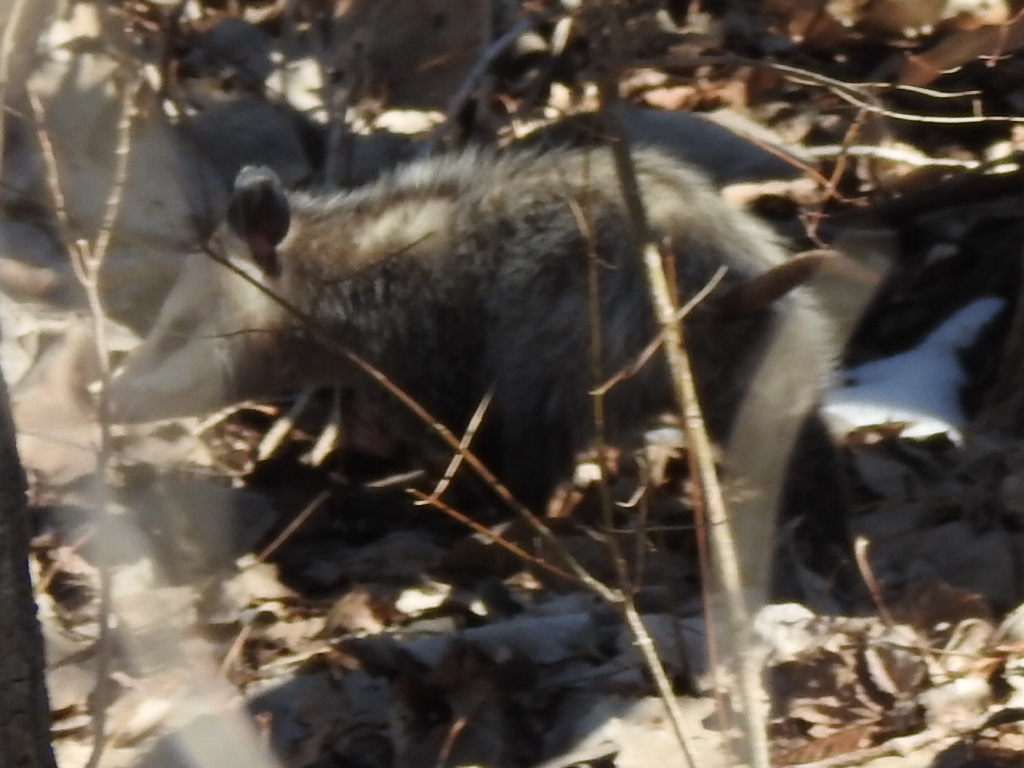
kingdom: Animalia
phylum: Chordata
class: Mammalia
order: Didelphimorphia
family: Didelphidae
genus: Didelphis
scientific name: Didelphis virginiana
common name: Virginia opossum
